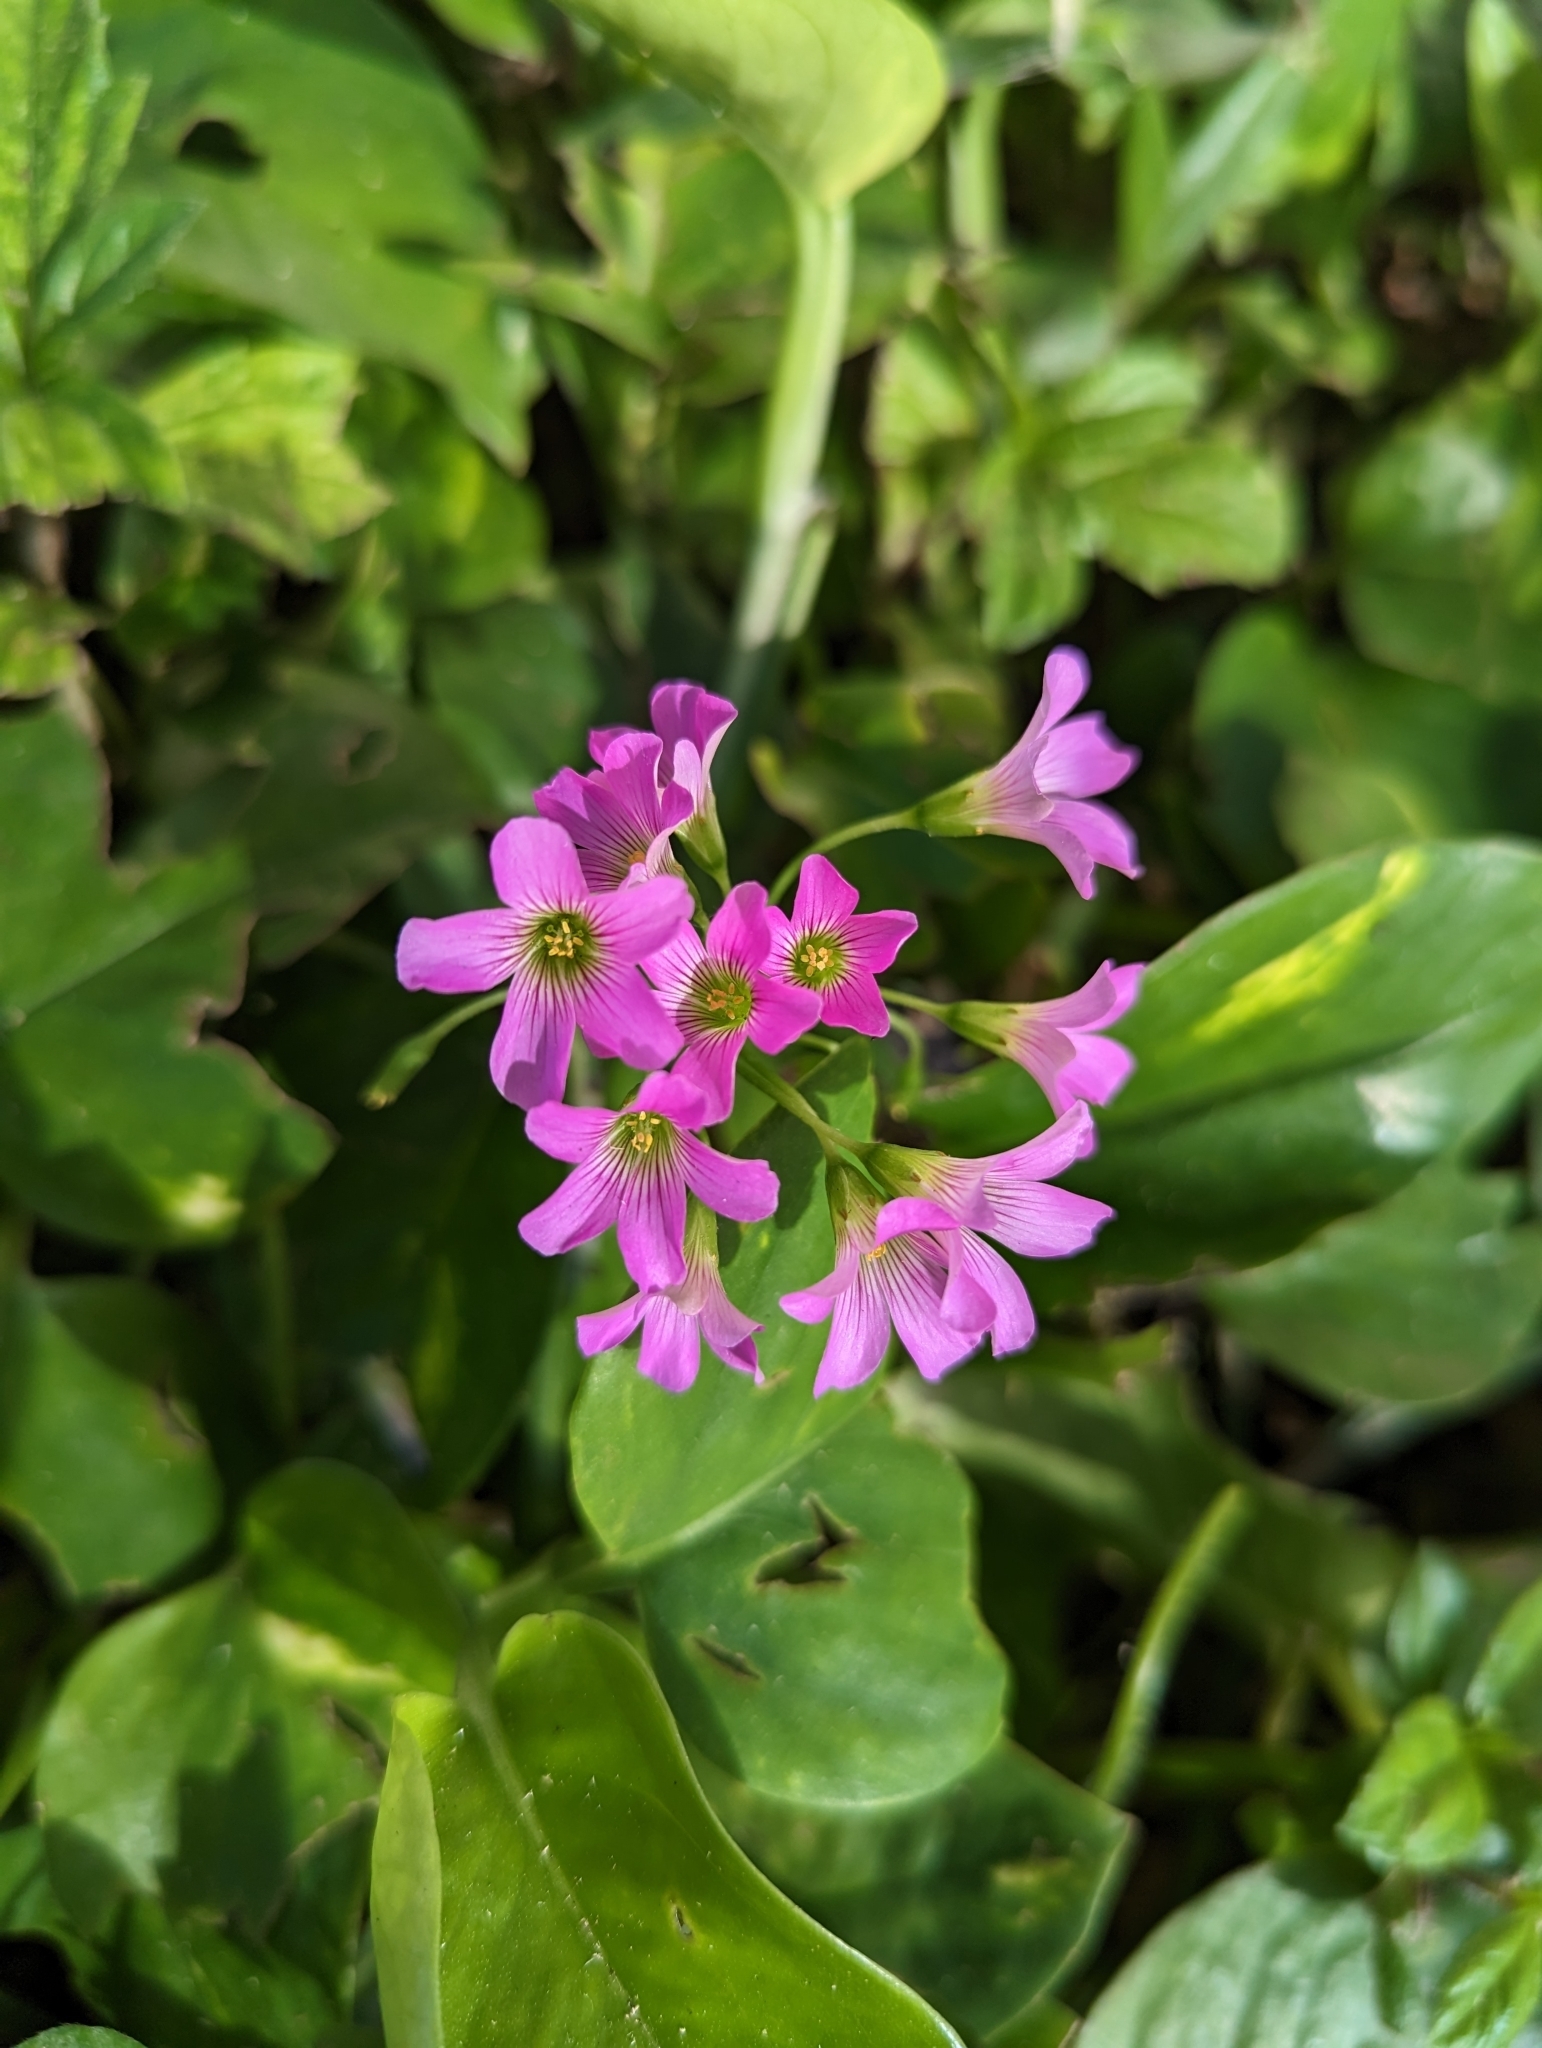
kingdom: Plantae
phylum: Tracheophyta
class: Magnoliopsida
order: Oxalidales
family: Oxalidaceae
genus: Oxalis
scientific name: Oxalis debilis
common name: Large-flowered pink-sorrel
